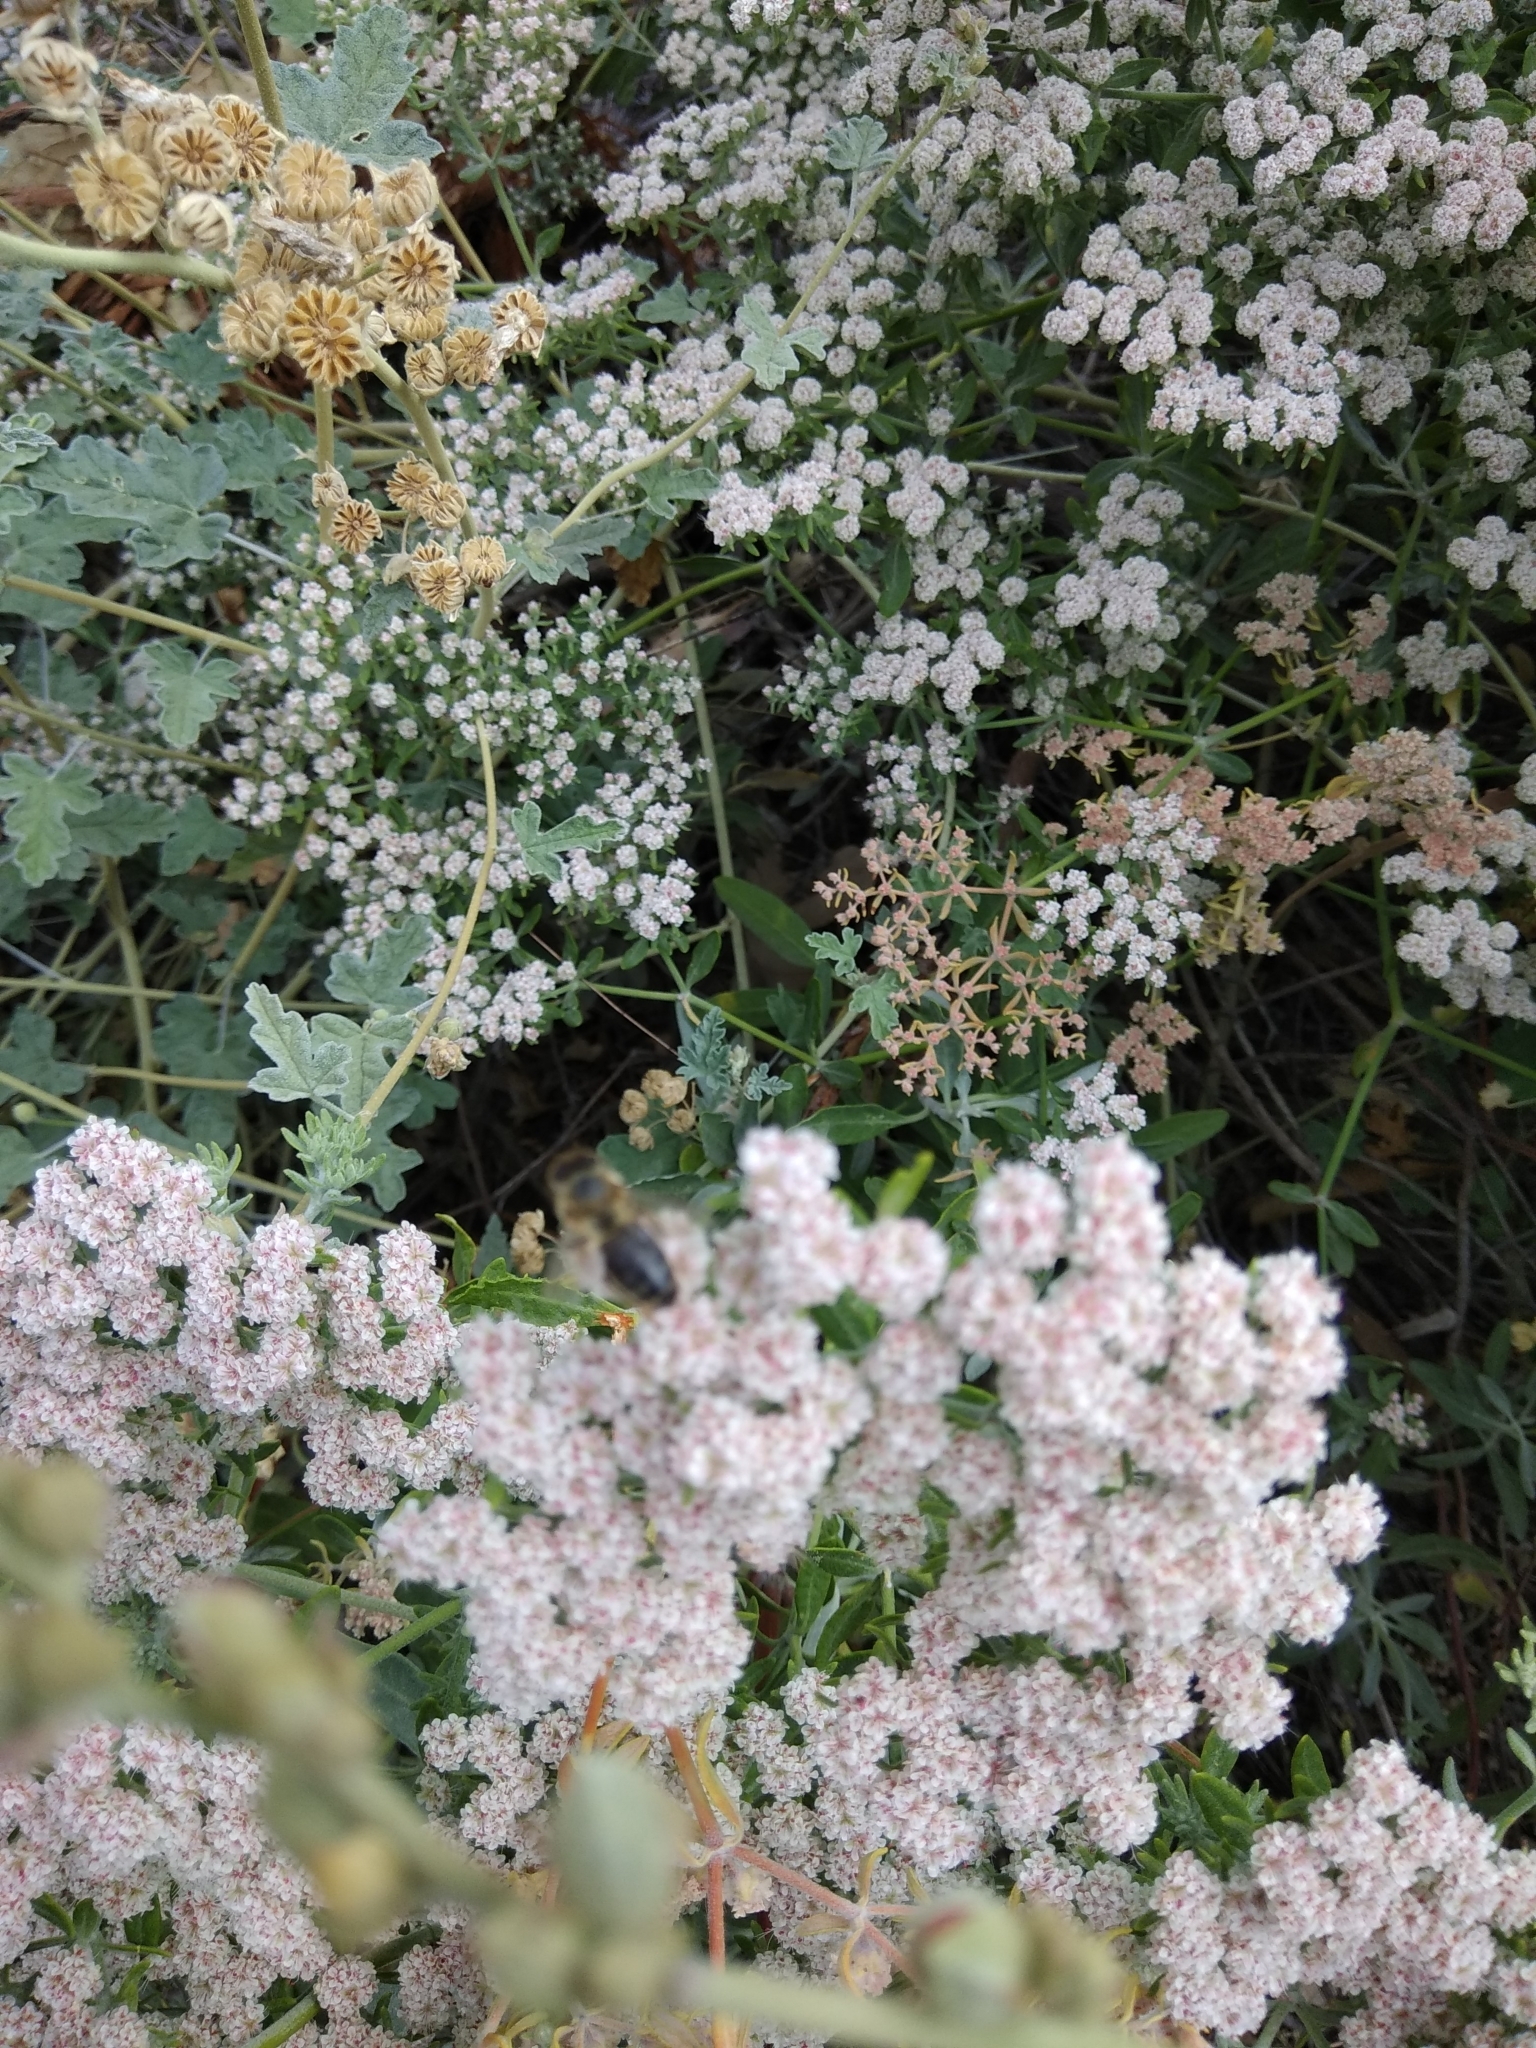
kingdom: Animalia
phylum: Arthropoda
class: Insecta
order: Hymenoptera
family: Apidae
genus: Apis
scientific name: Apis mellifera
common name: Honey bee
